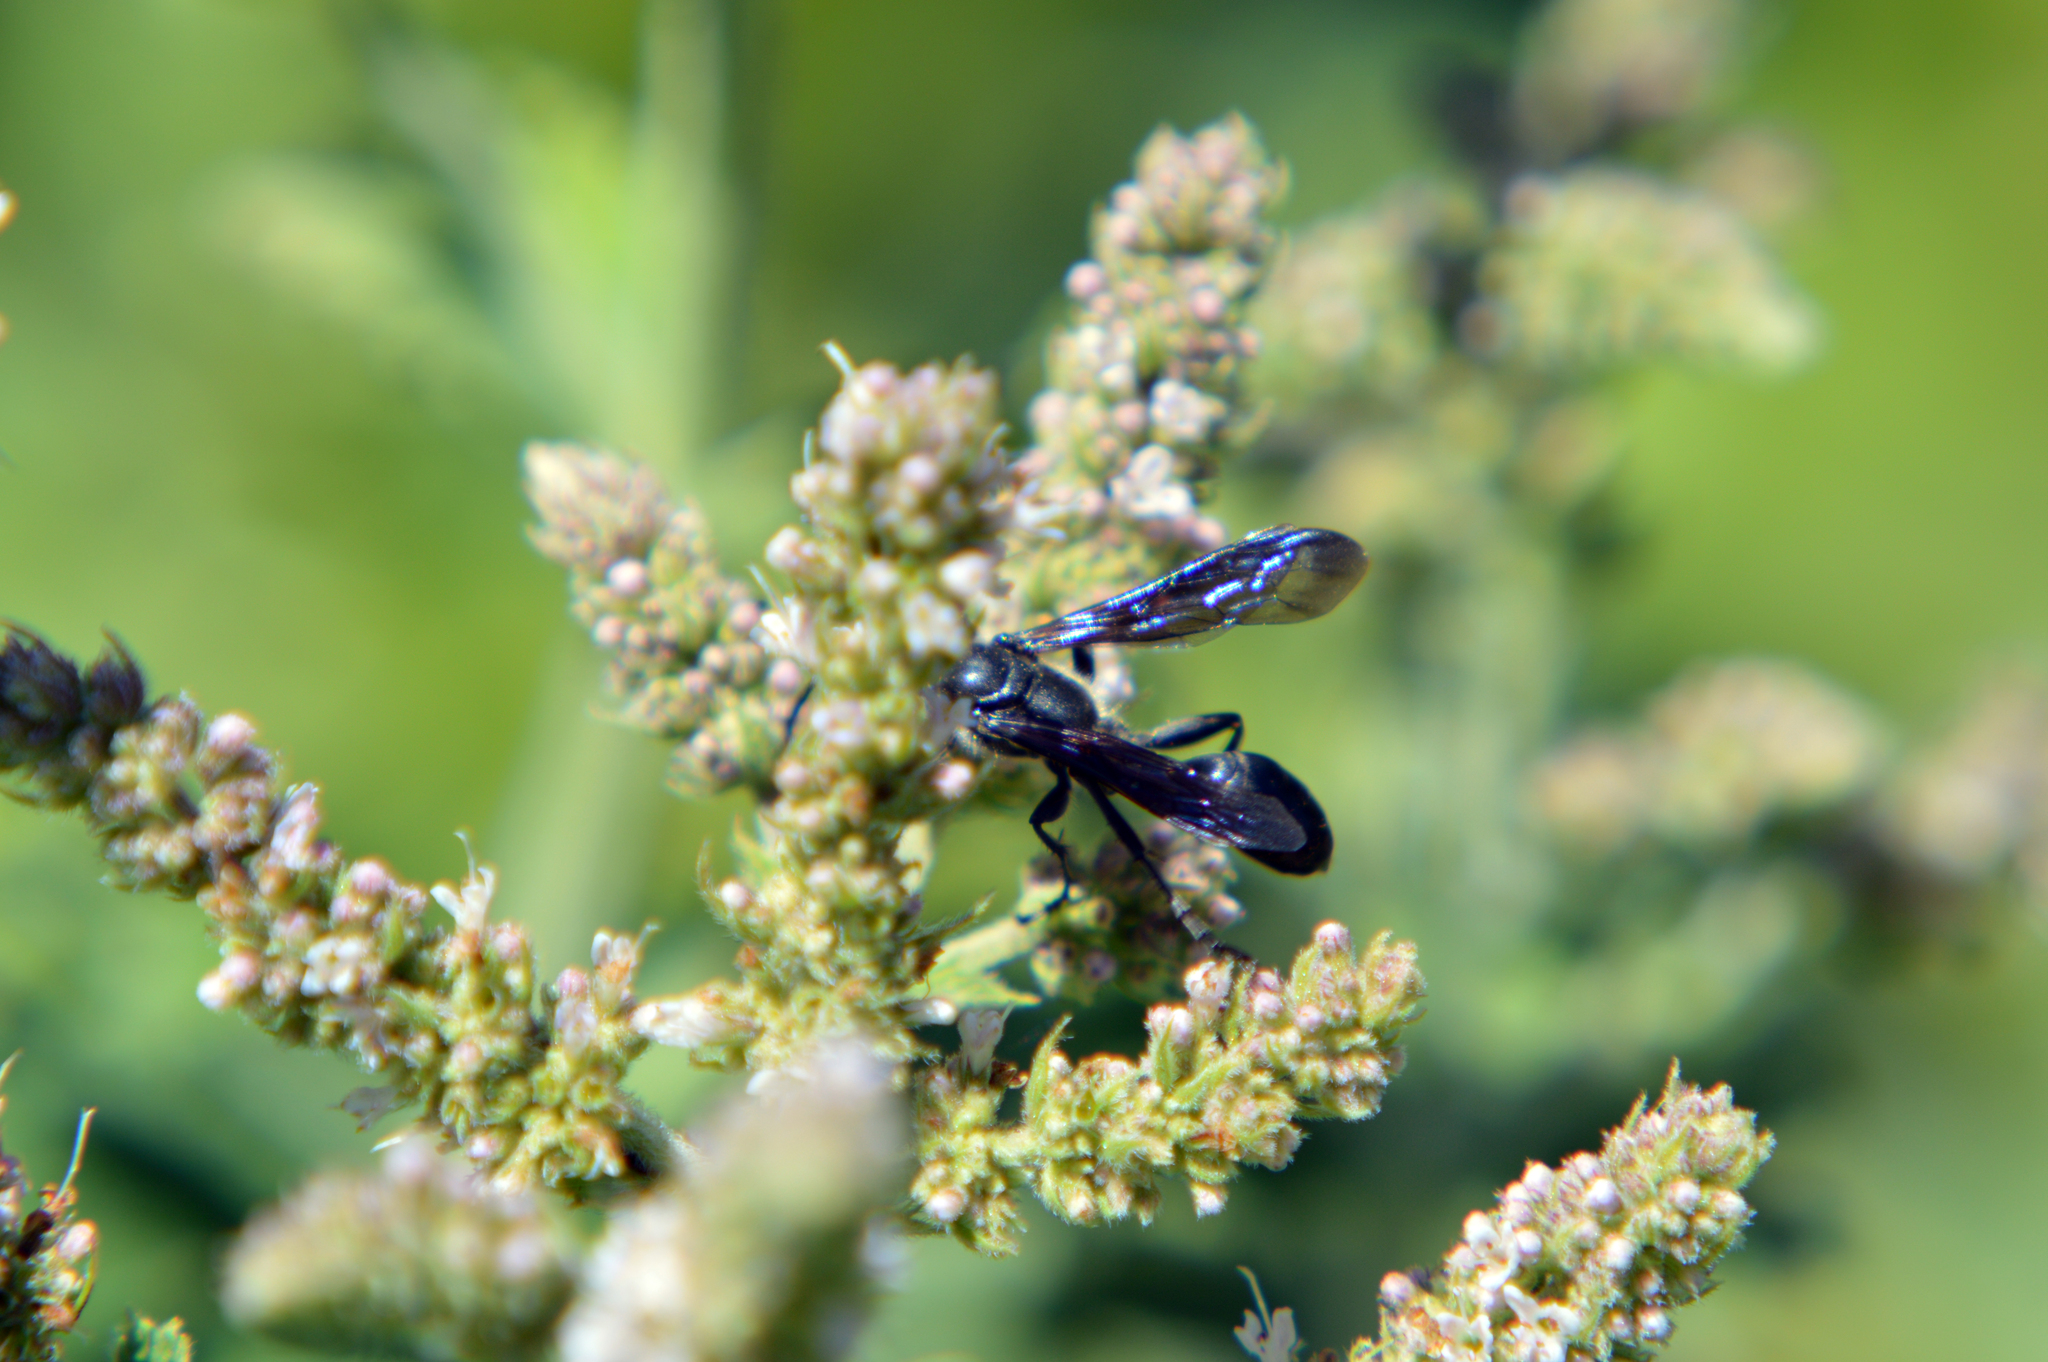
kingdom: Animalia
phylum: Arthropoda
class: Insecta
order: Hymenoptera
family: Sphecidae
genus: Isodontia
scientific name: Isodontia mexicana
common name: Mud dauber
